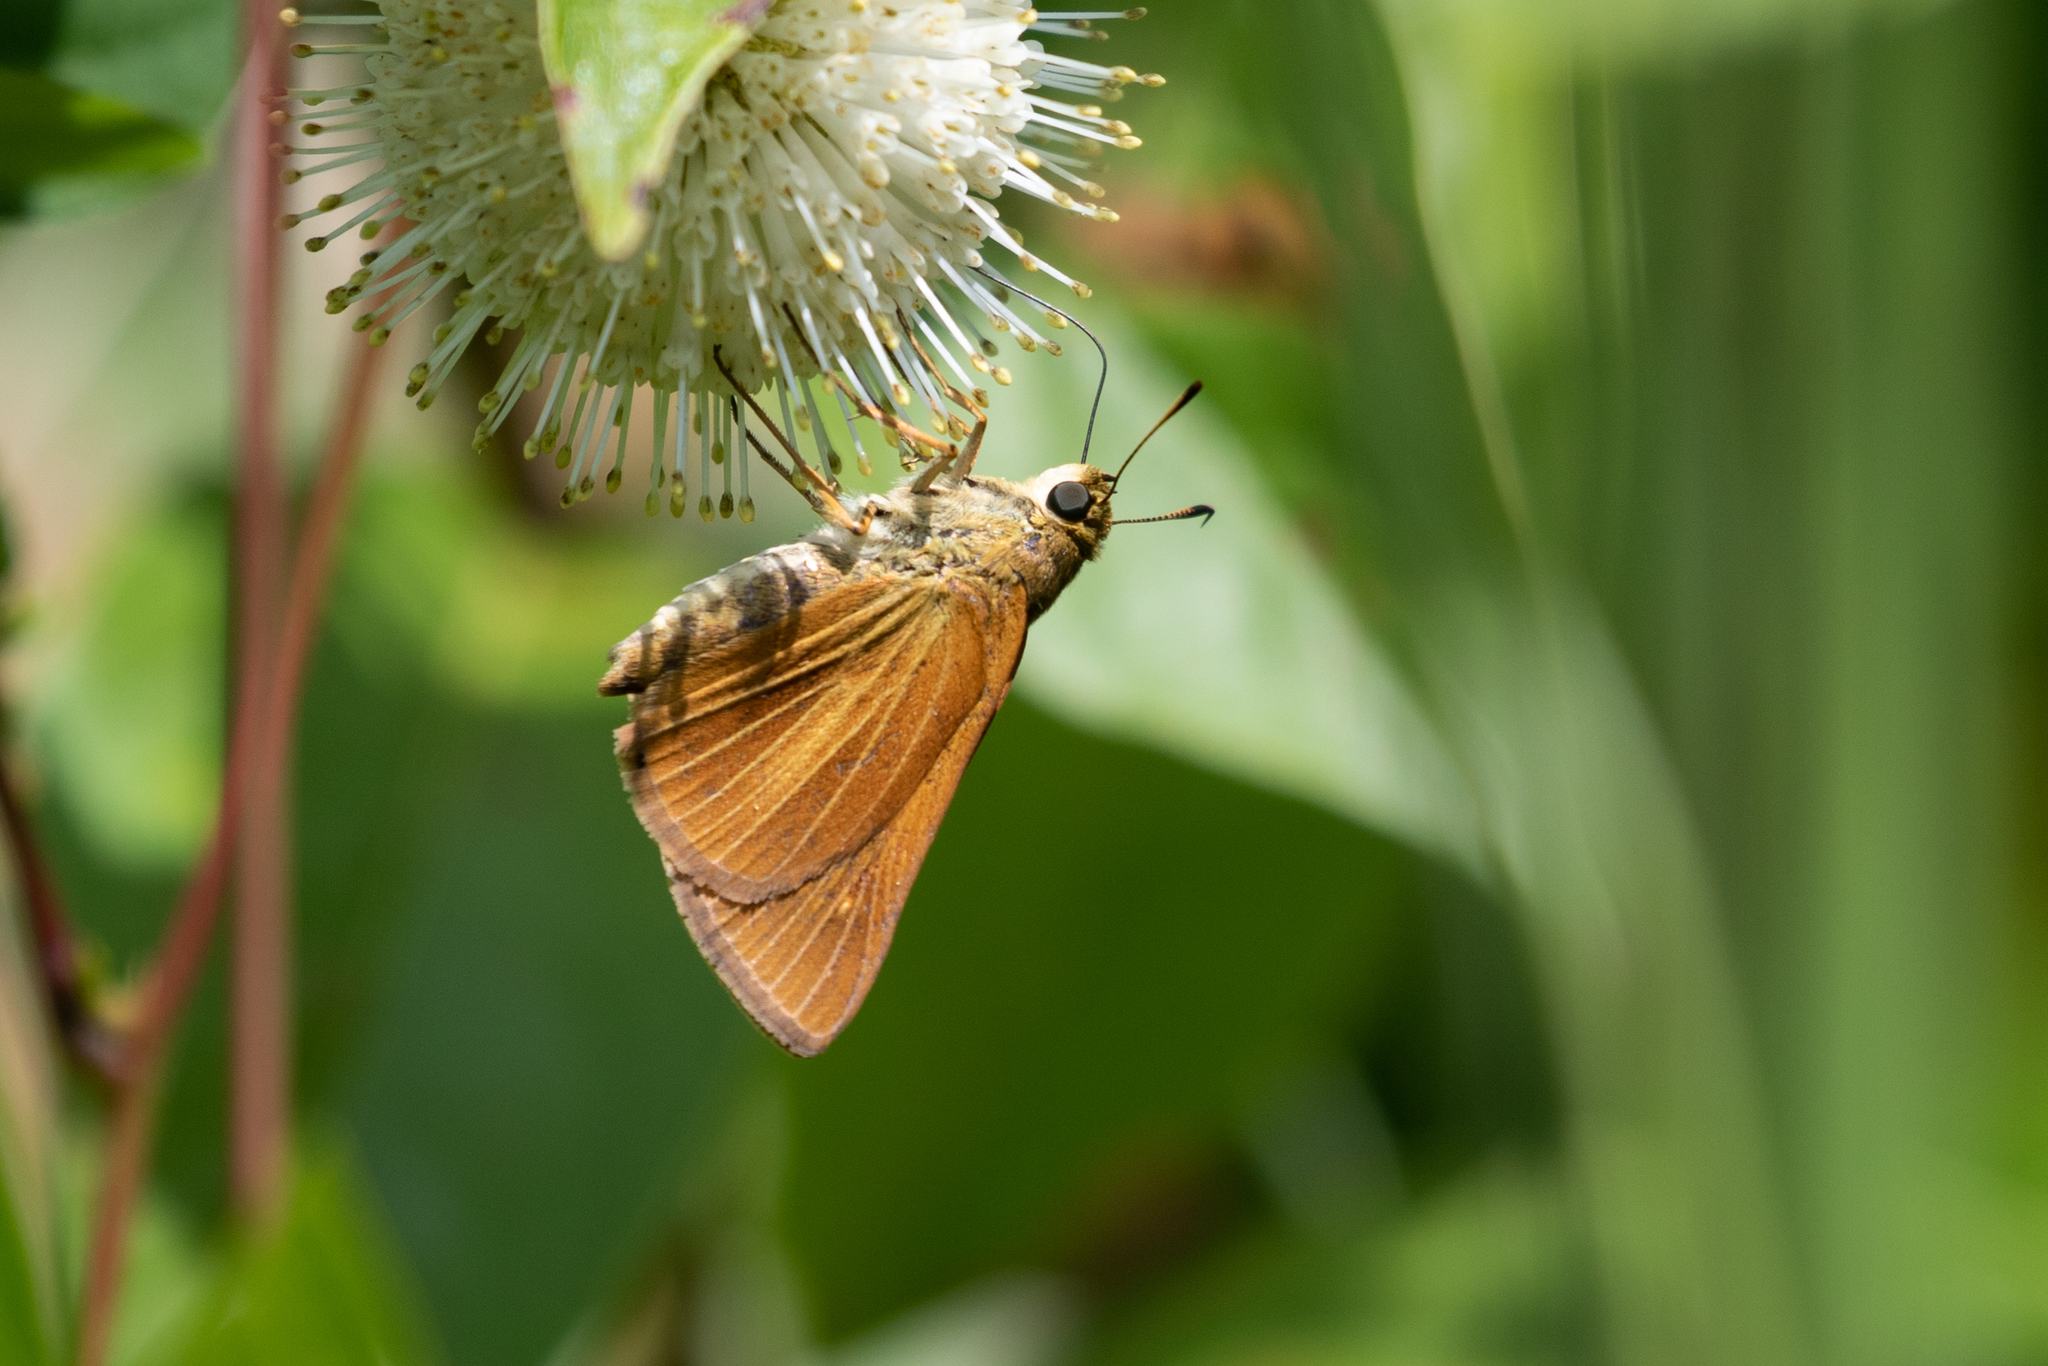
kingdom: Animalia
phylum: Arthropoda
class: Insecta
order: Lepidoptera
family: Hesperiidae
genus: Euphyes
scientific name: Euphyes dion
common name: Dion skipper
